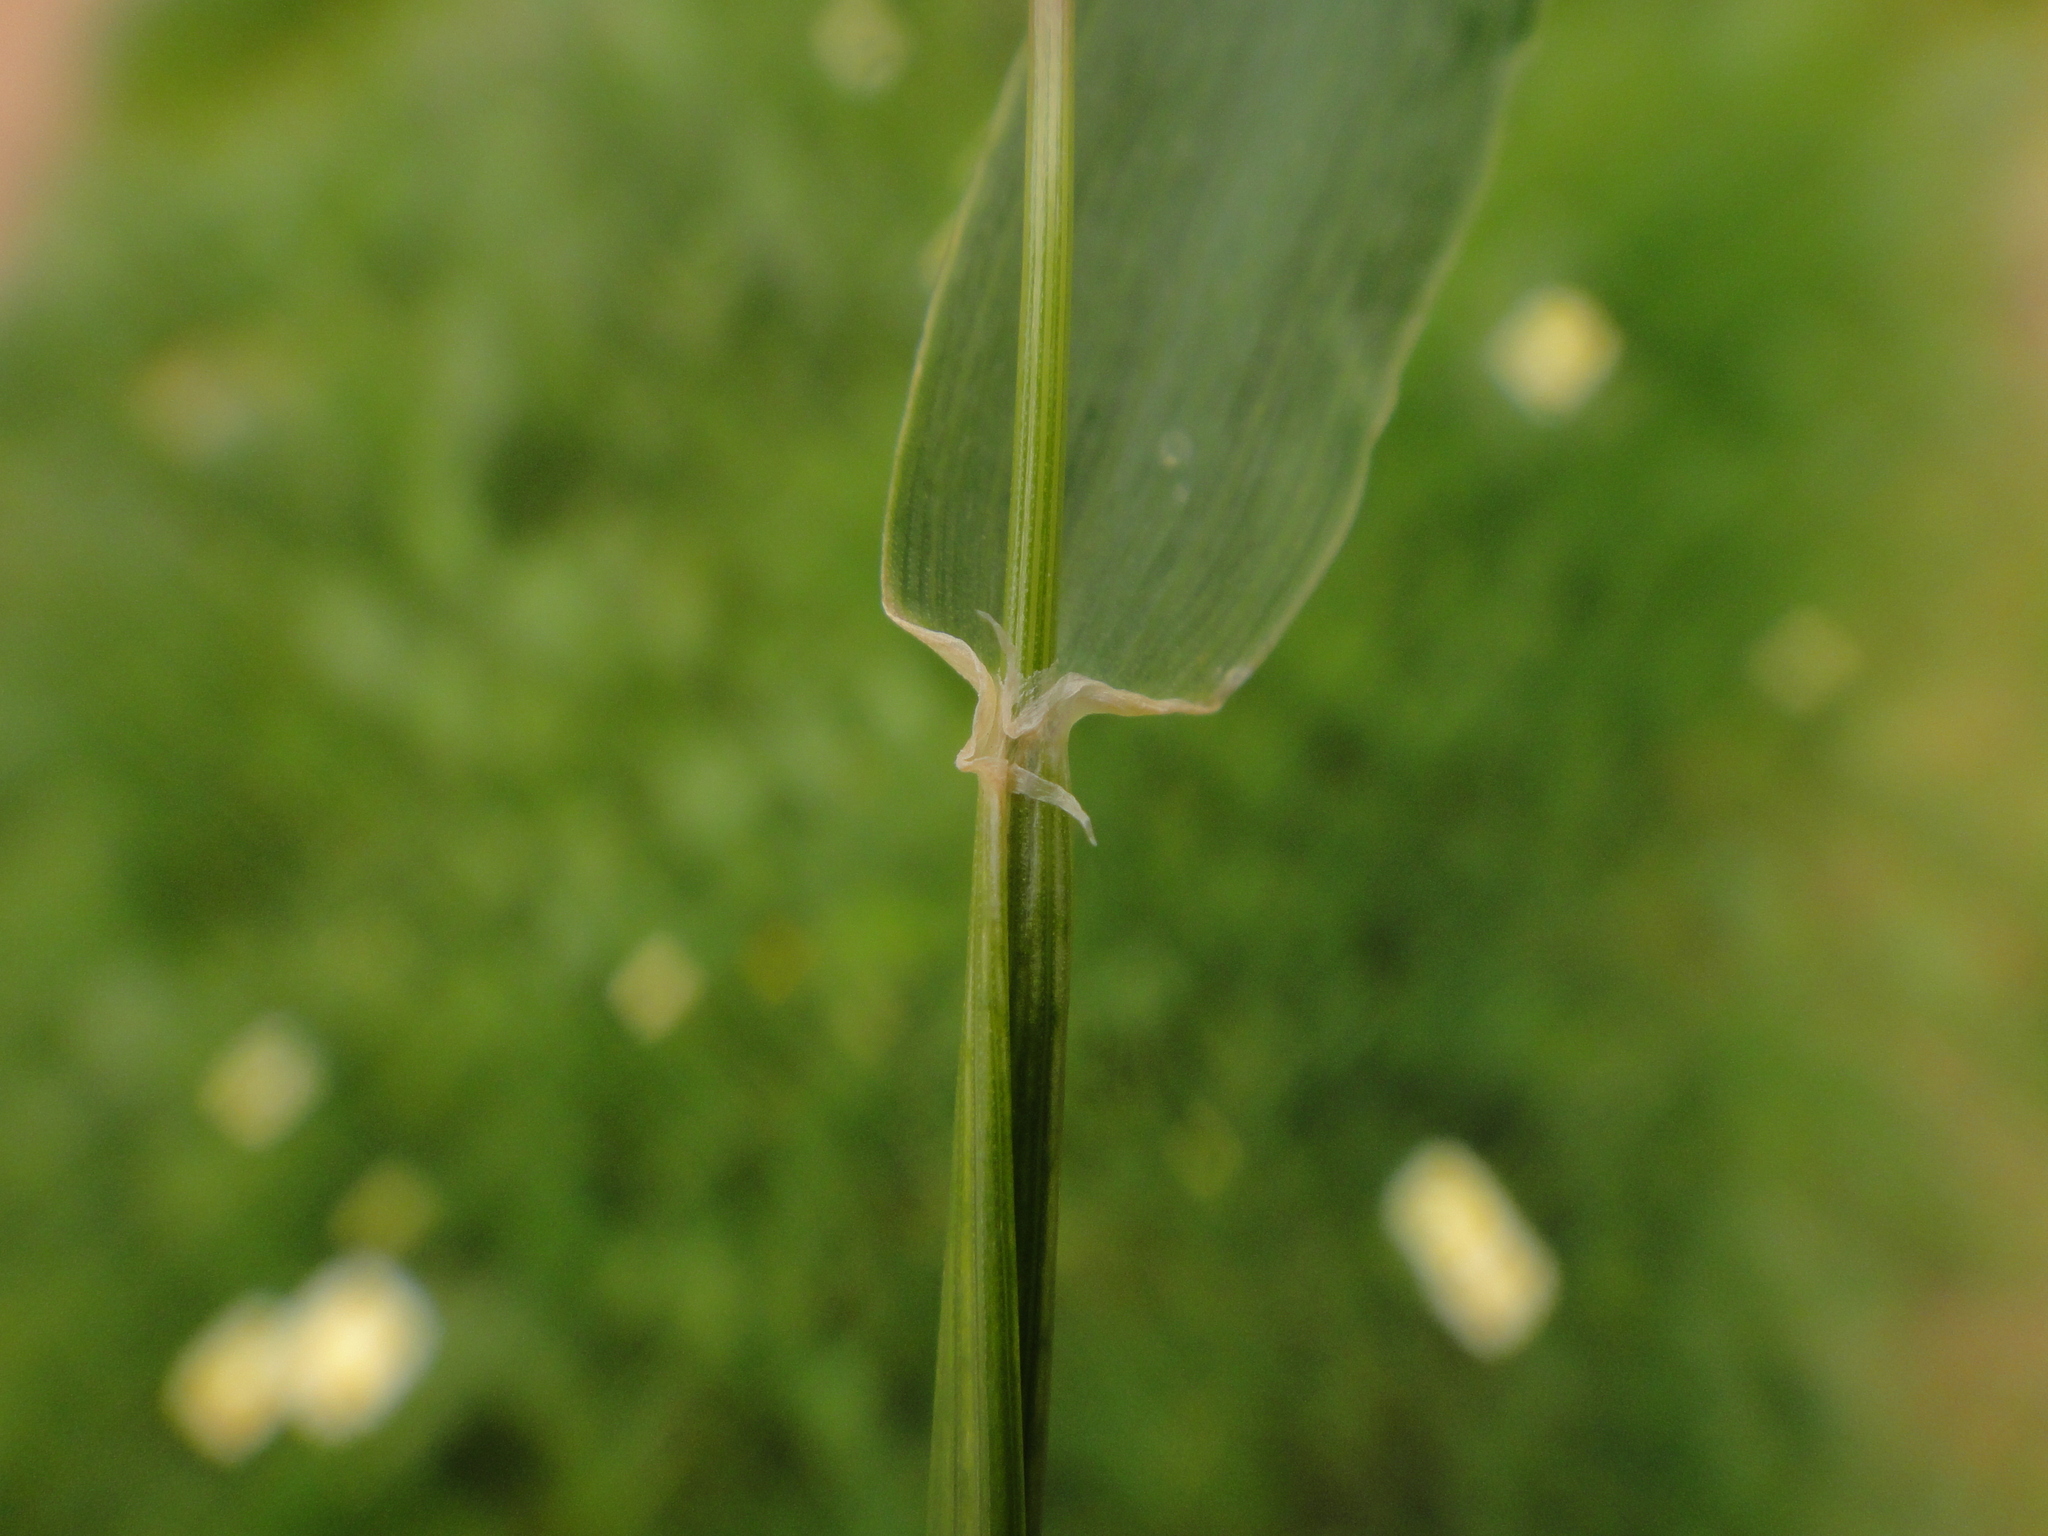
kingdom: Plantae
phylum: Tracheophyta
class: Liliopsida
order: Poales
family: Poaceae
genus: Hordeum
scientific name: Hordeum murinum
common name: Wall barley
